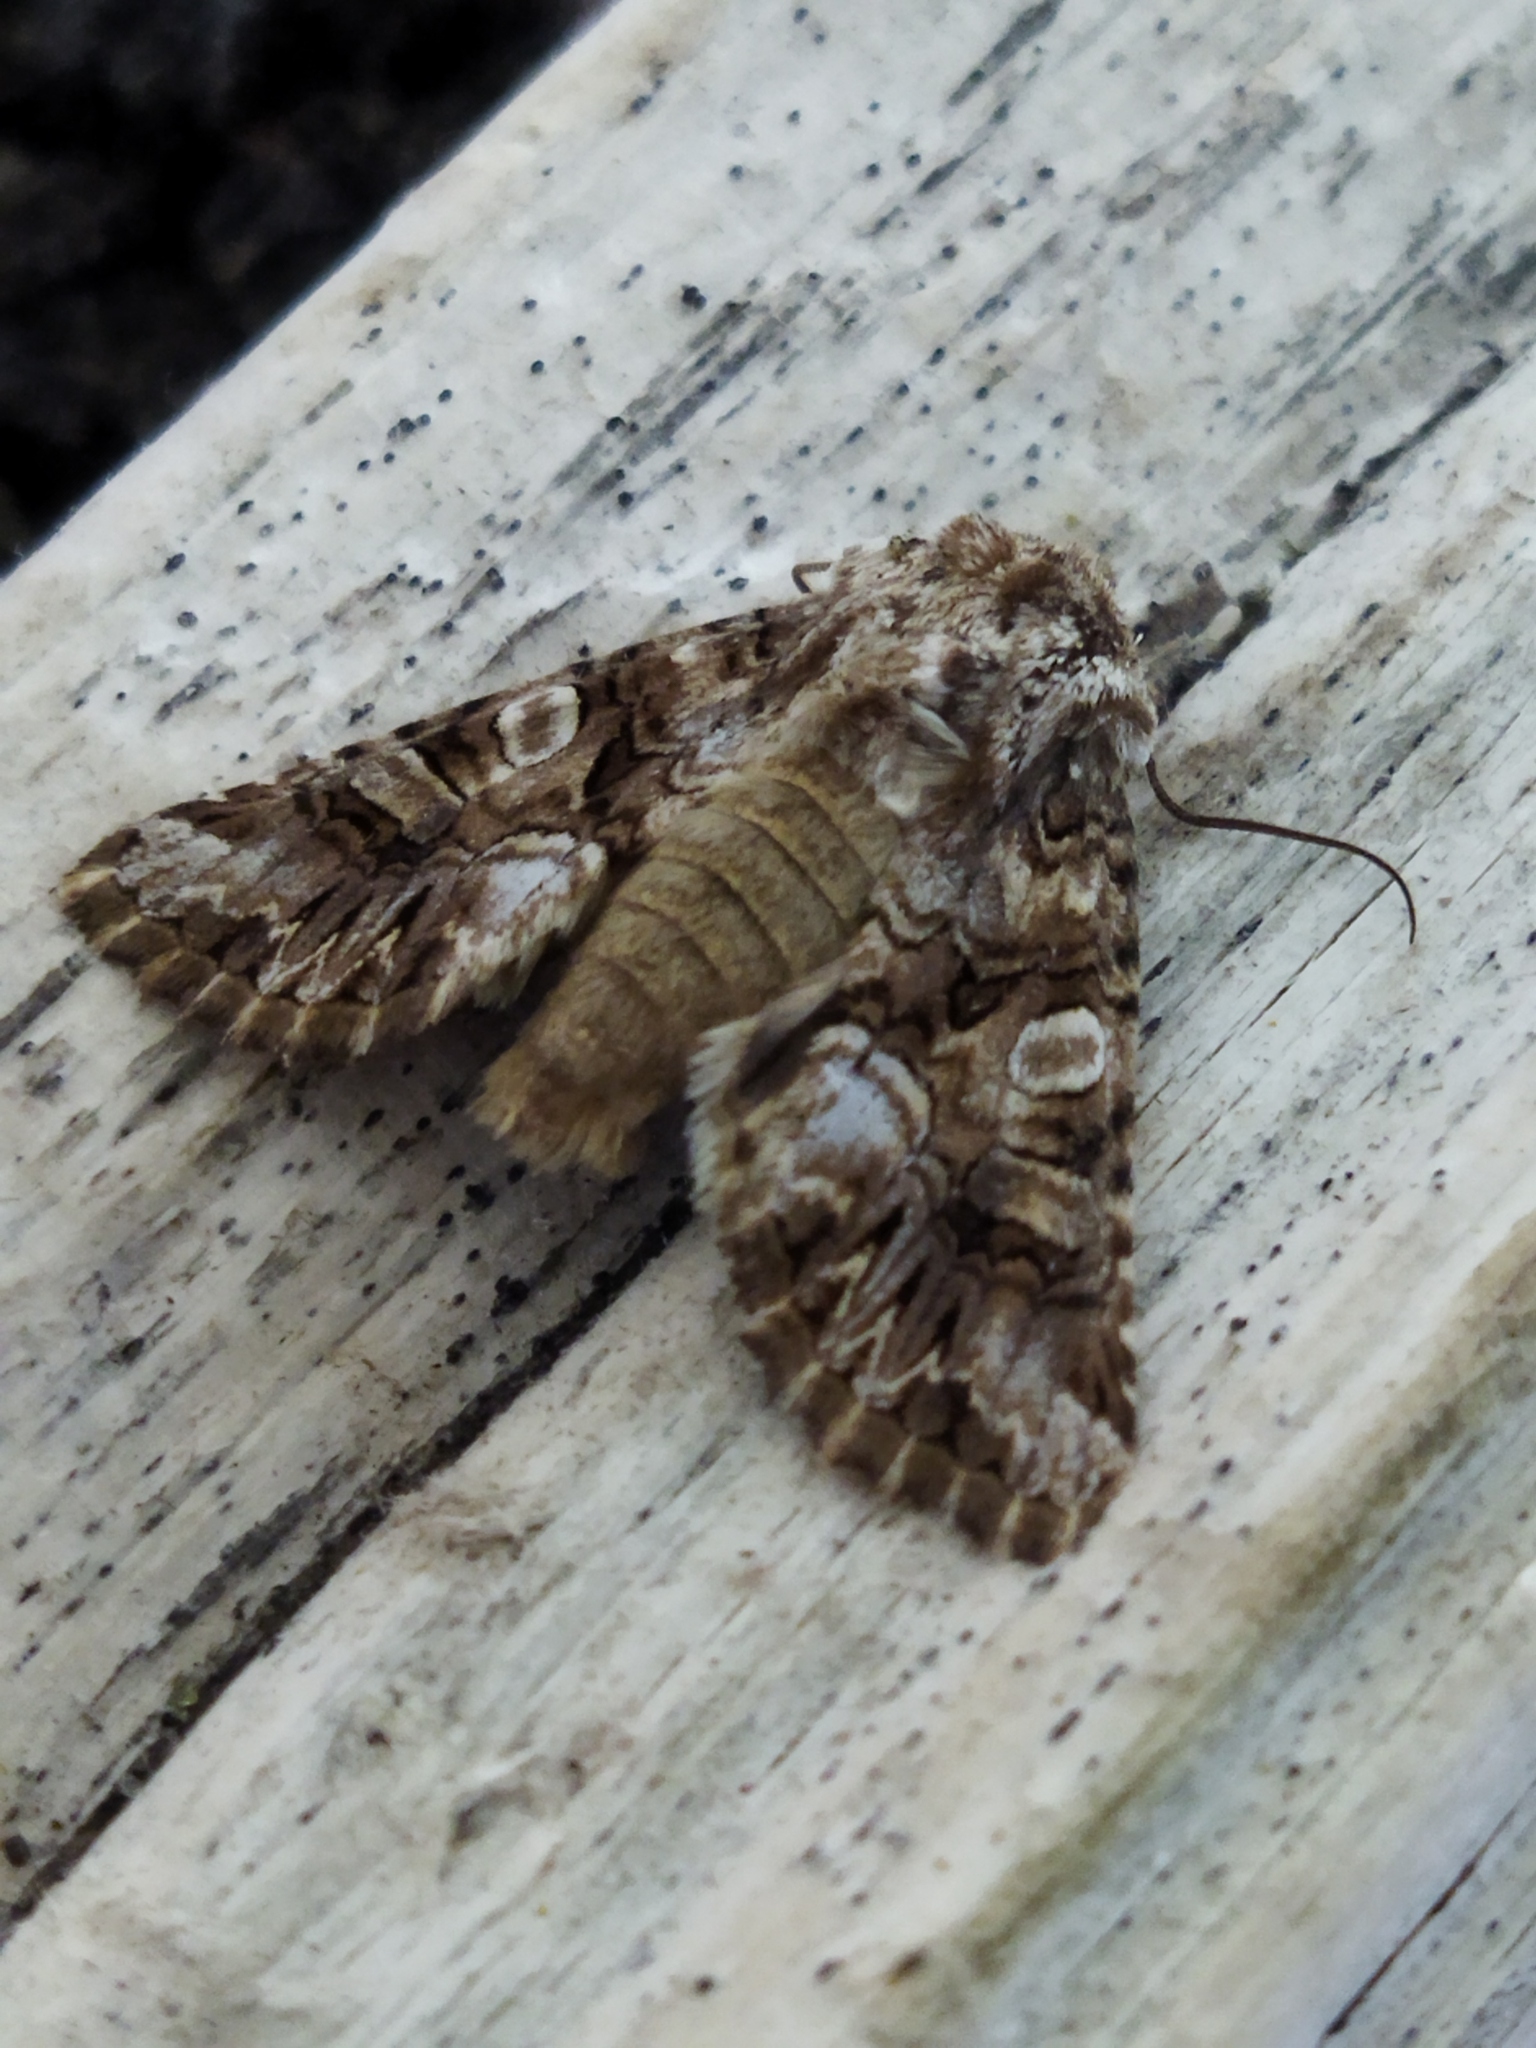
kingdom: Animalia
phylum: Arthropoda
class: Insecta
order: Lepidoptera
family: Noctuidae
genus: Hadena
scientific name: Hadena silenes
